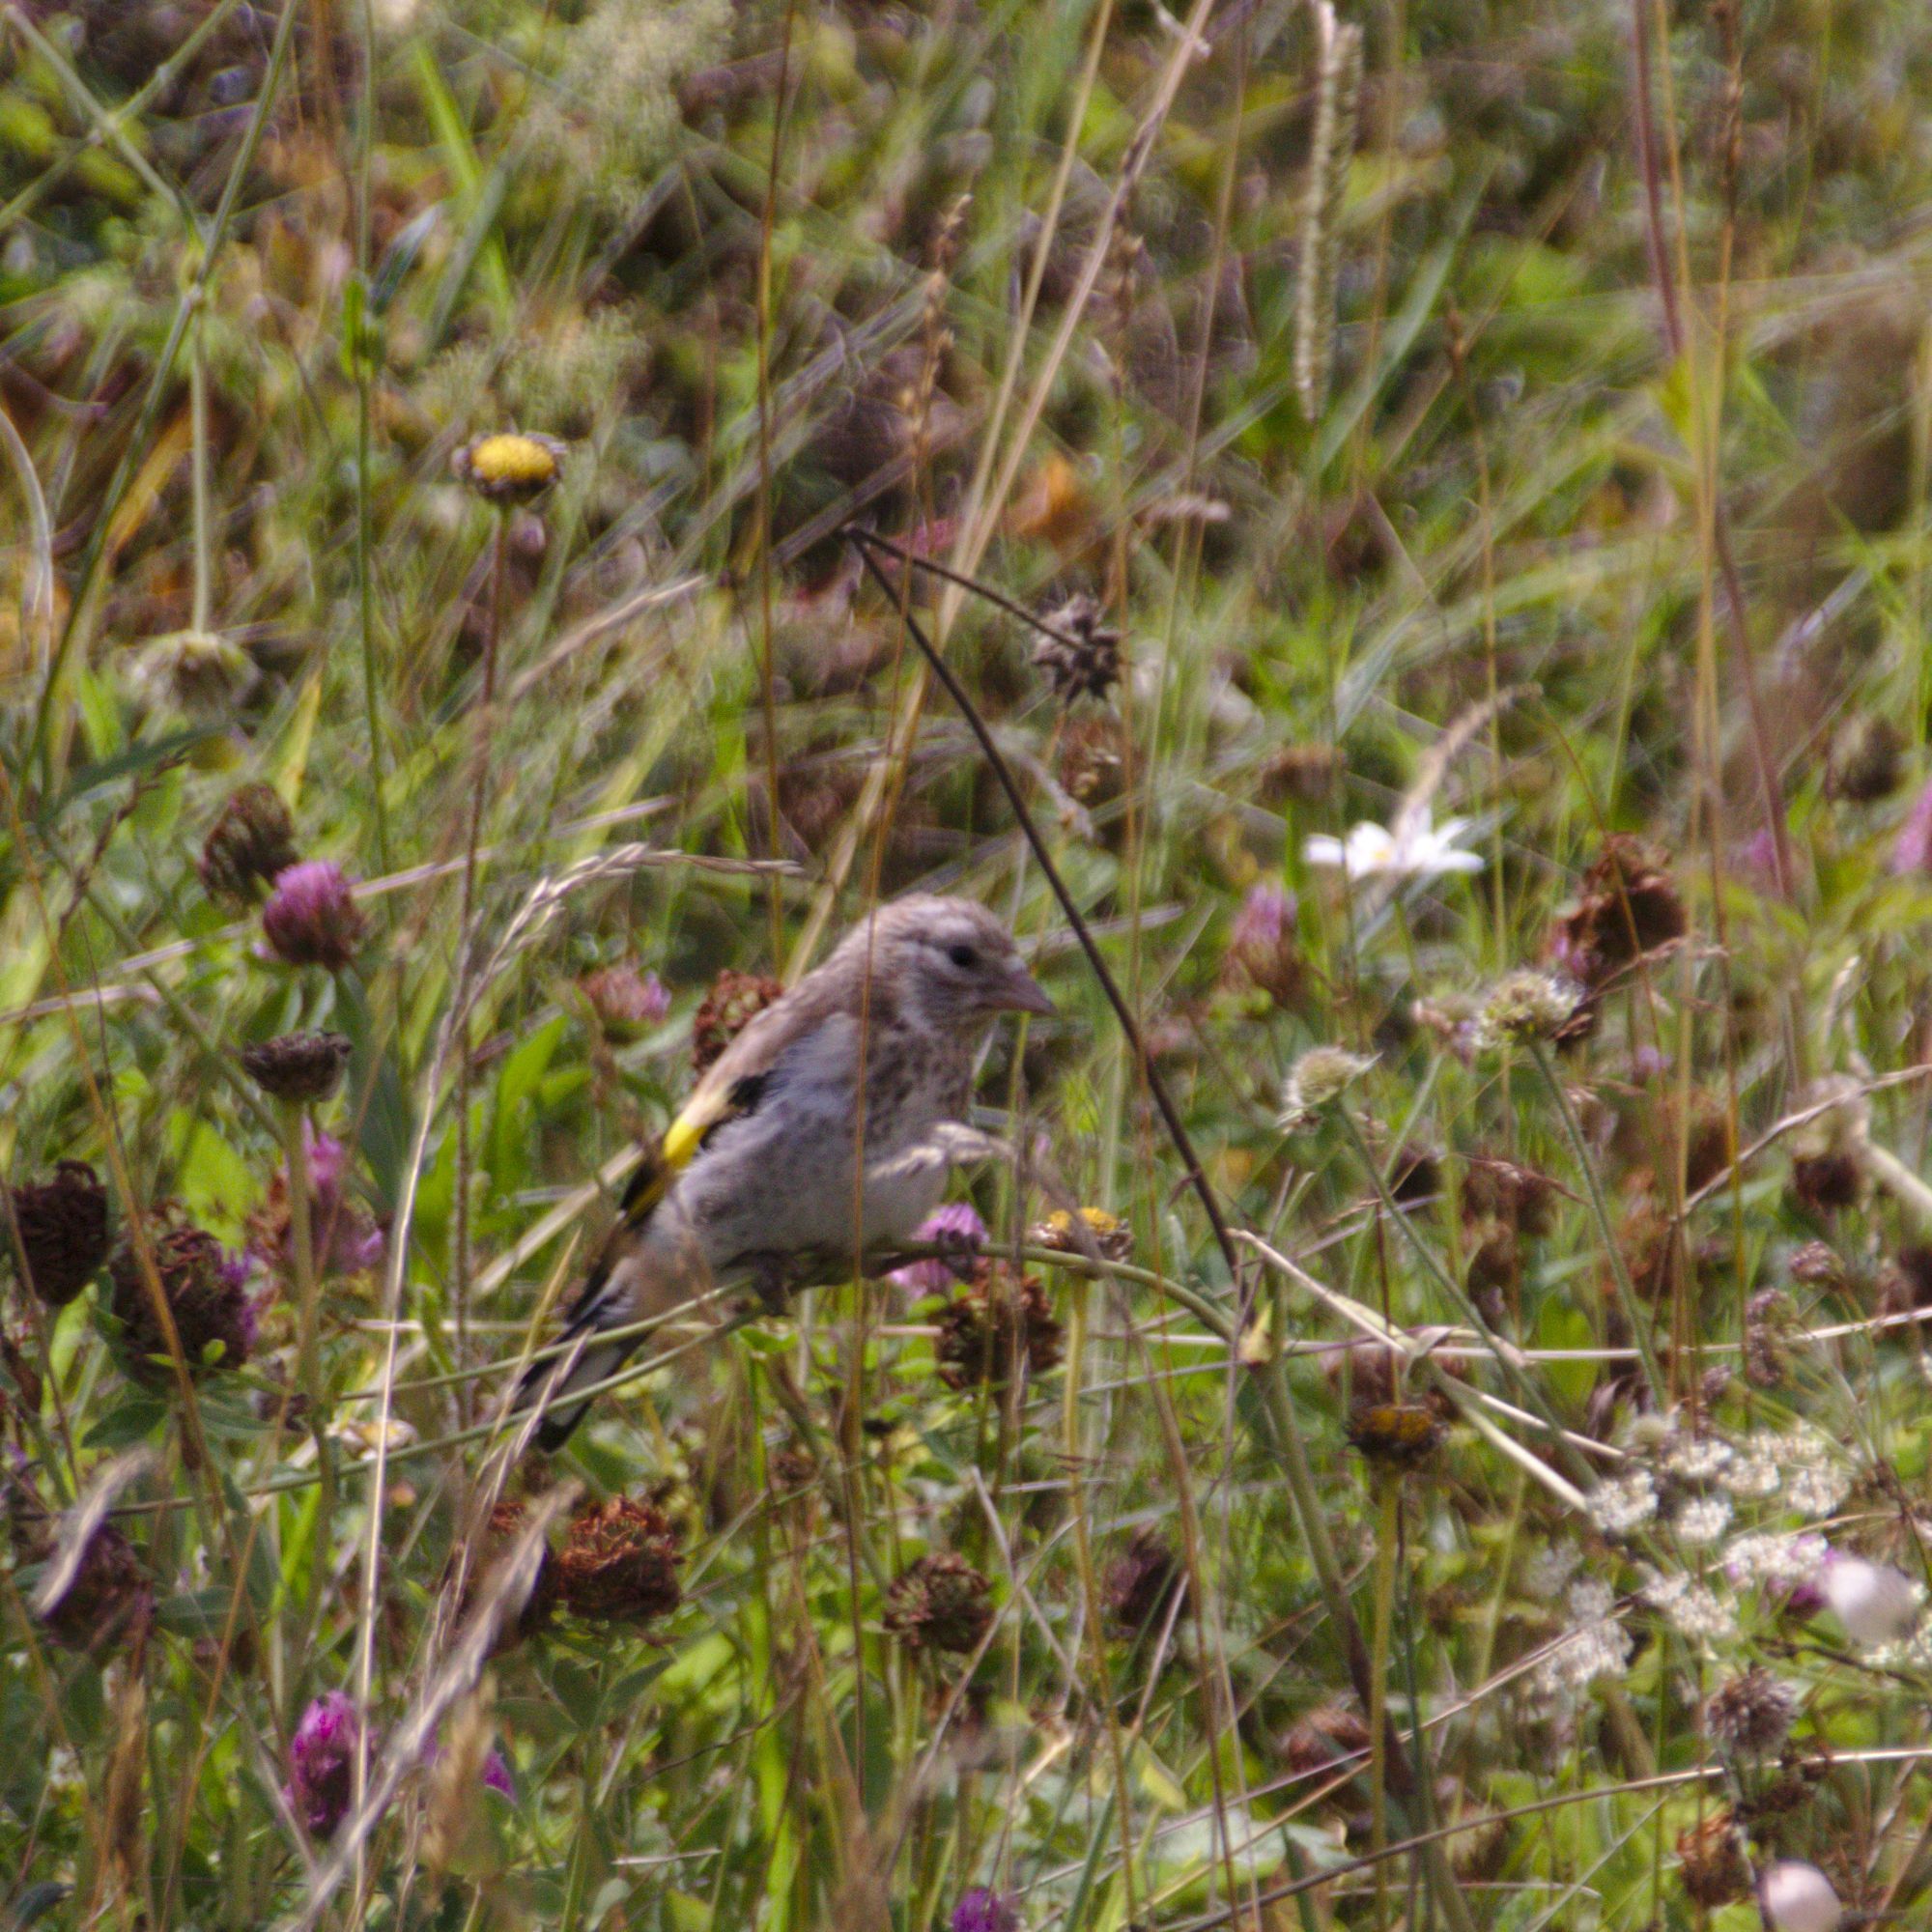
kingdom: Animalia
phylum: Chordata
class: Aves
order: Passeriformes
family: Fringillidae
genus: Carduelis
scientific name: Carduelis carduelis
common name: European goldfinch
